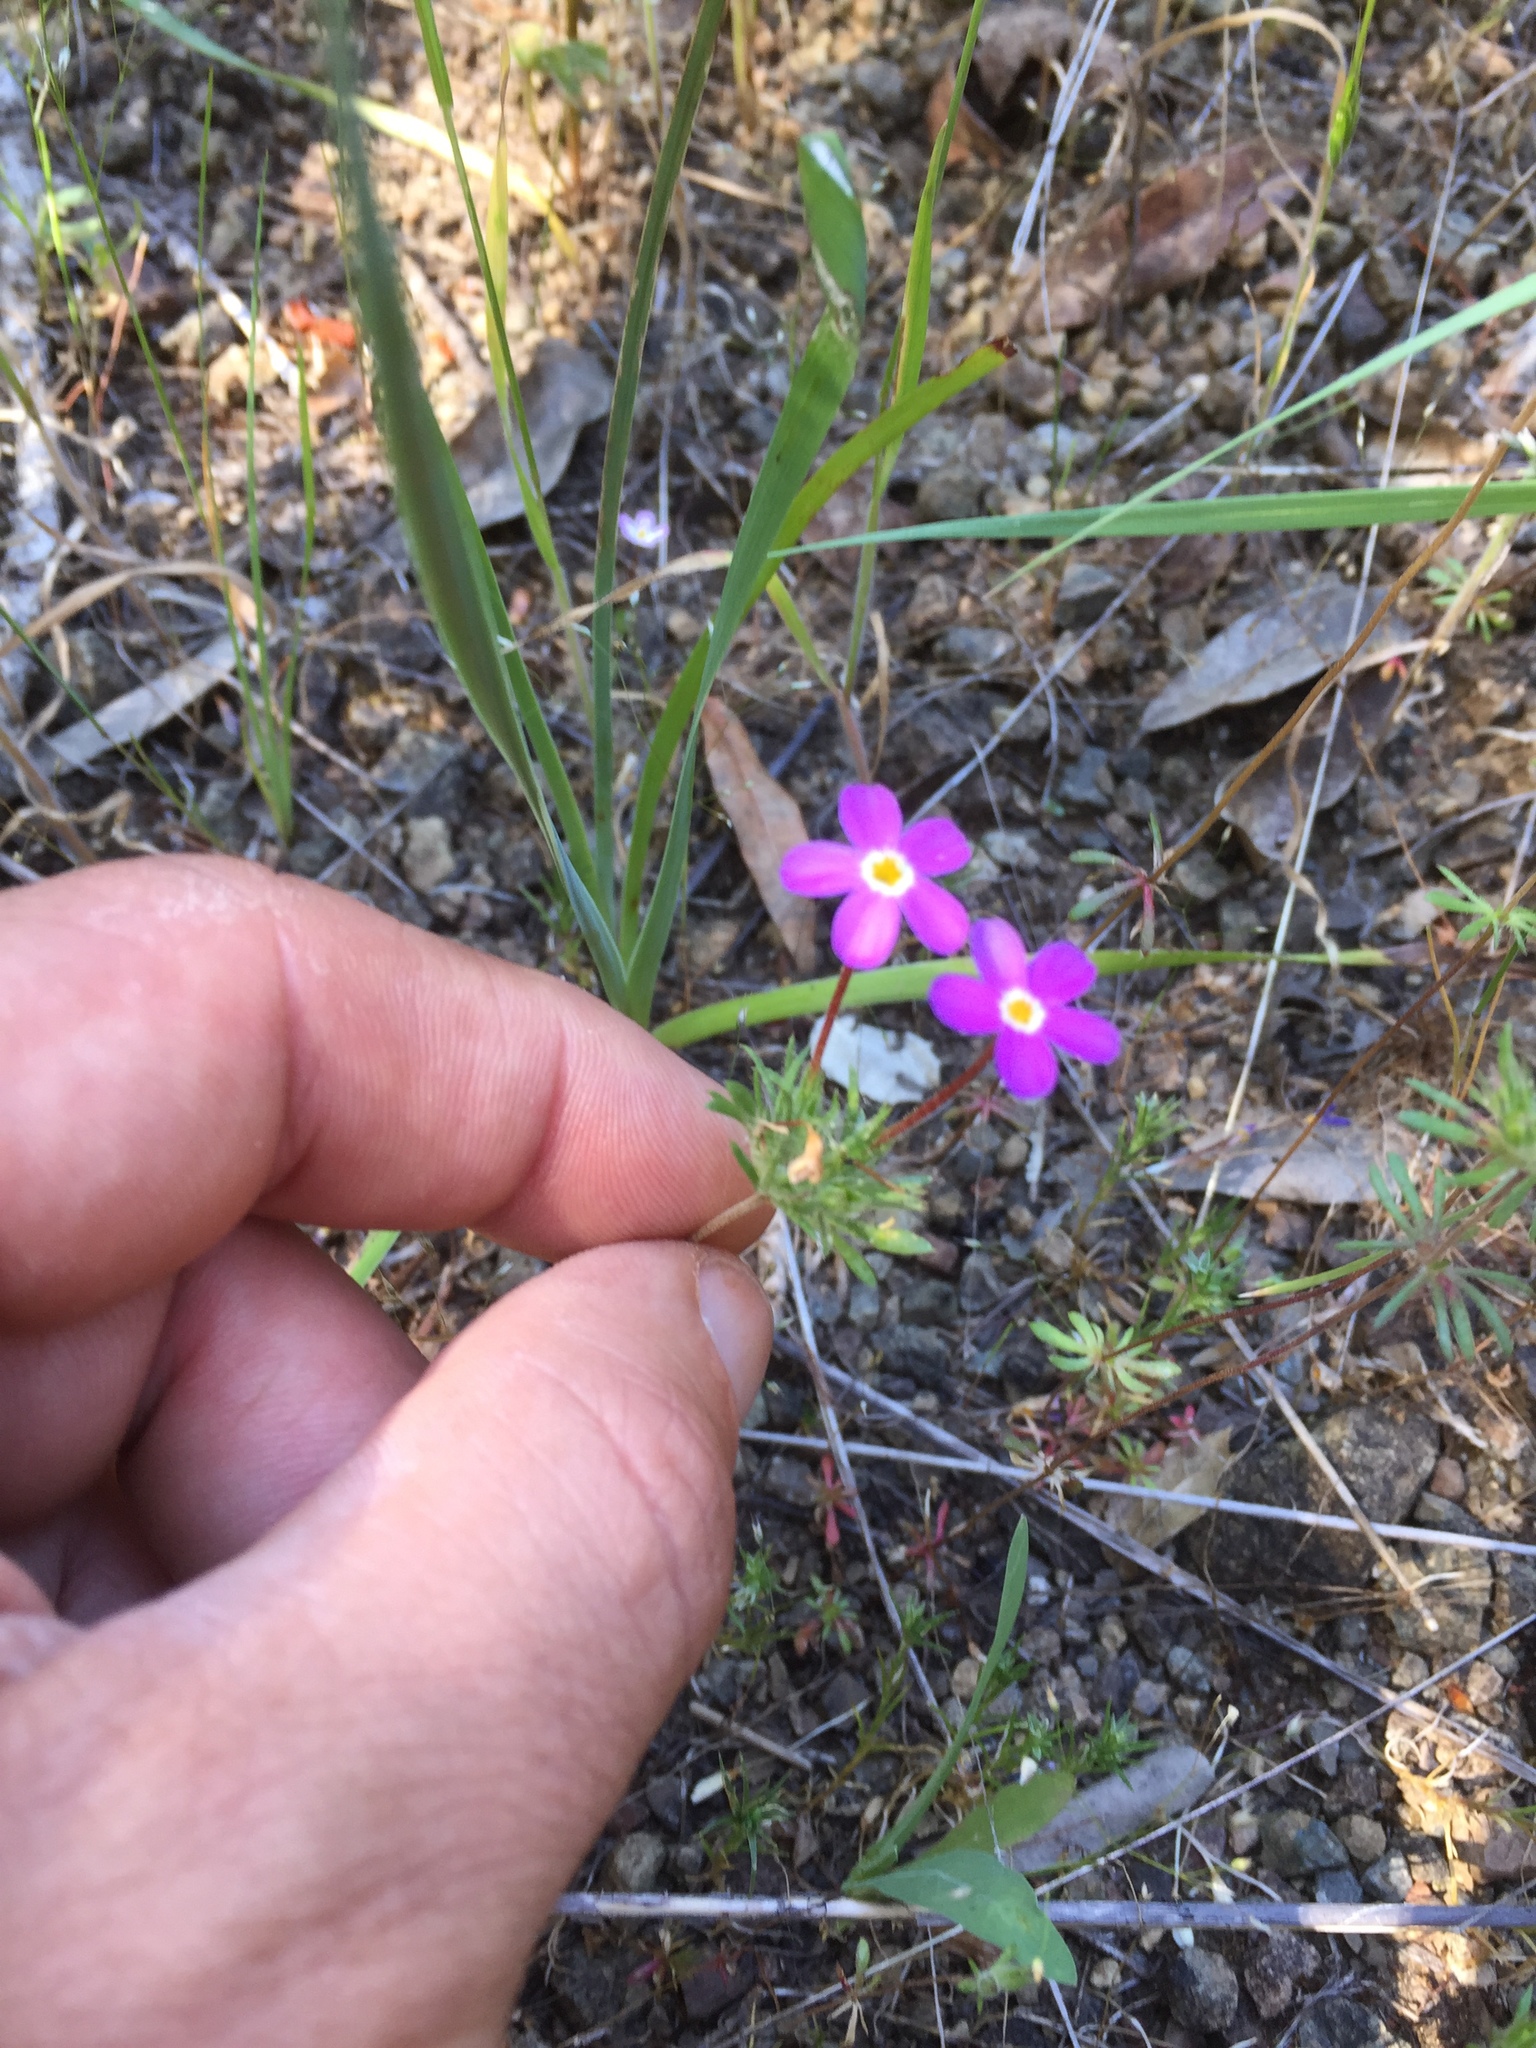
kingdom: Plantae
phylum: Tracheophyta
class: Magnoliopsida
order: Ericales
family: Polemoniaceae
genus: Leptosiphon
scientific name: Leptosiphon parviflorus
